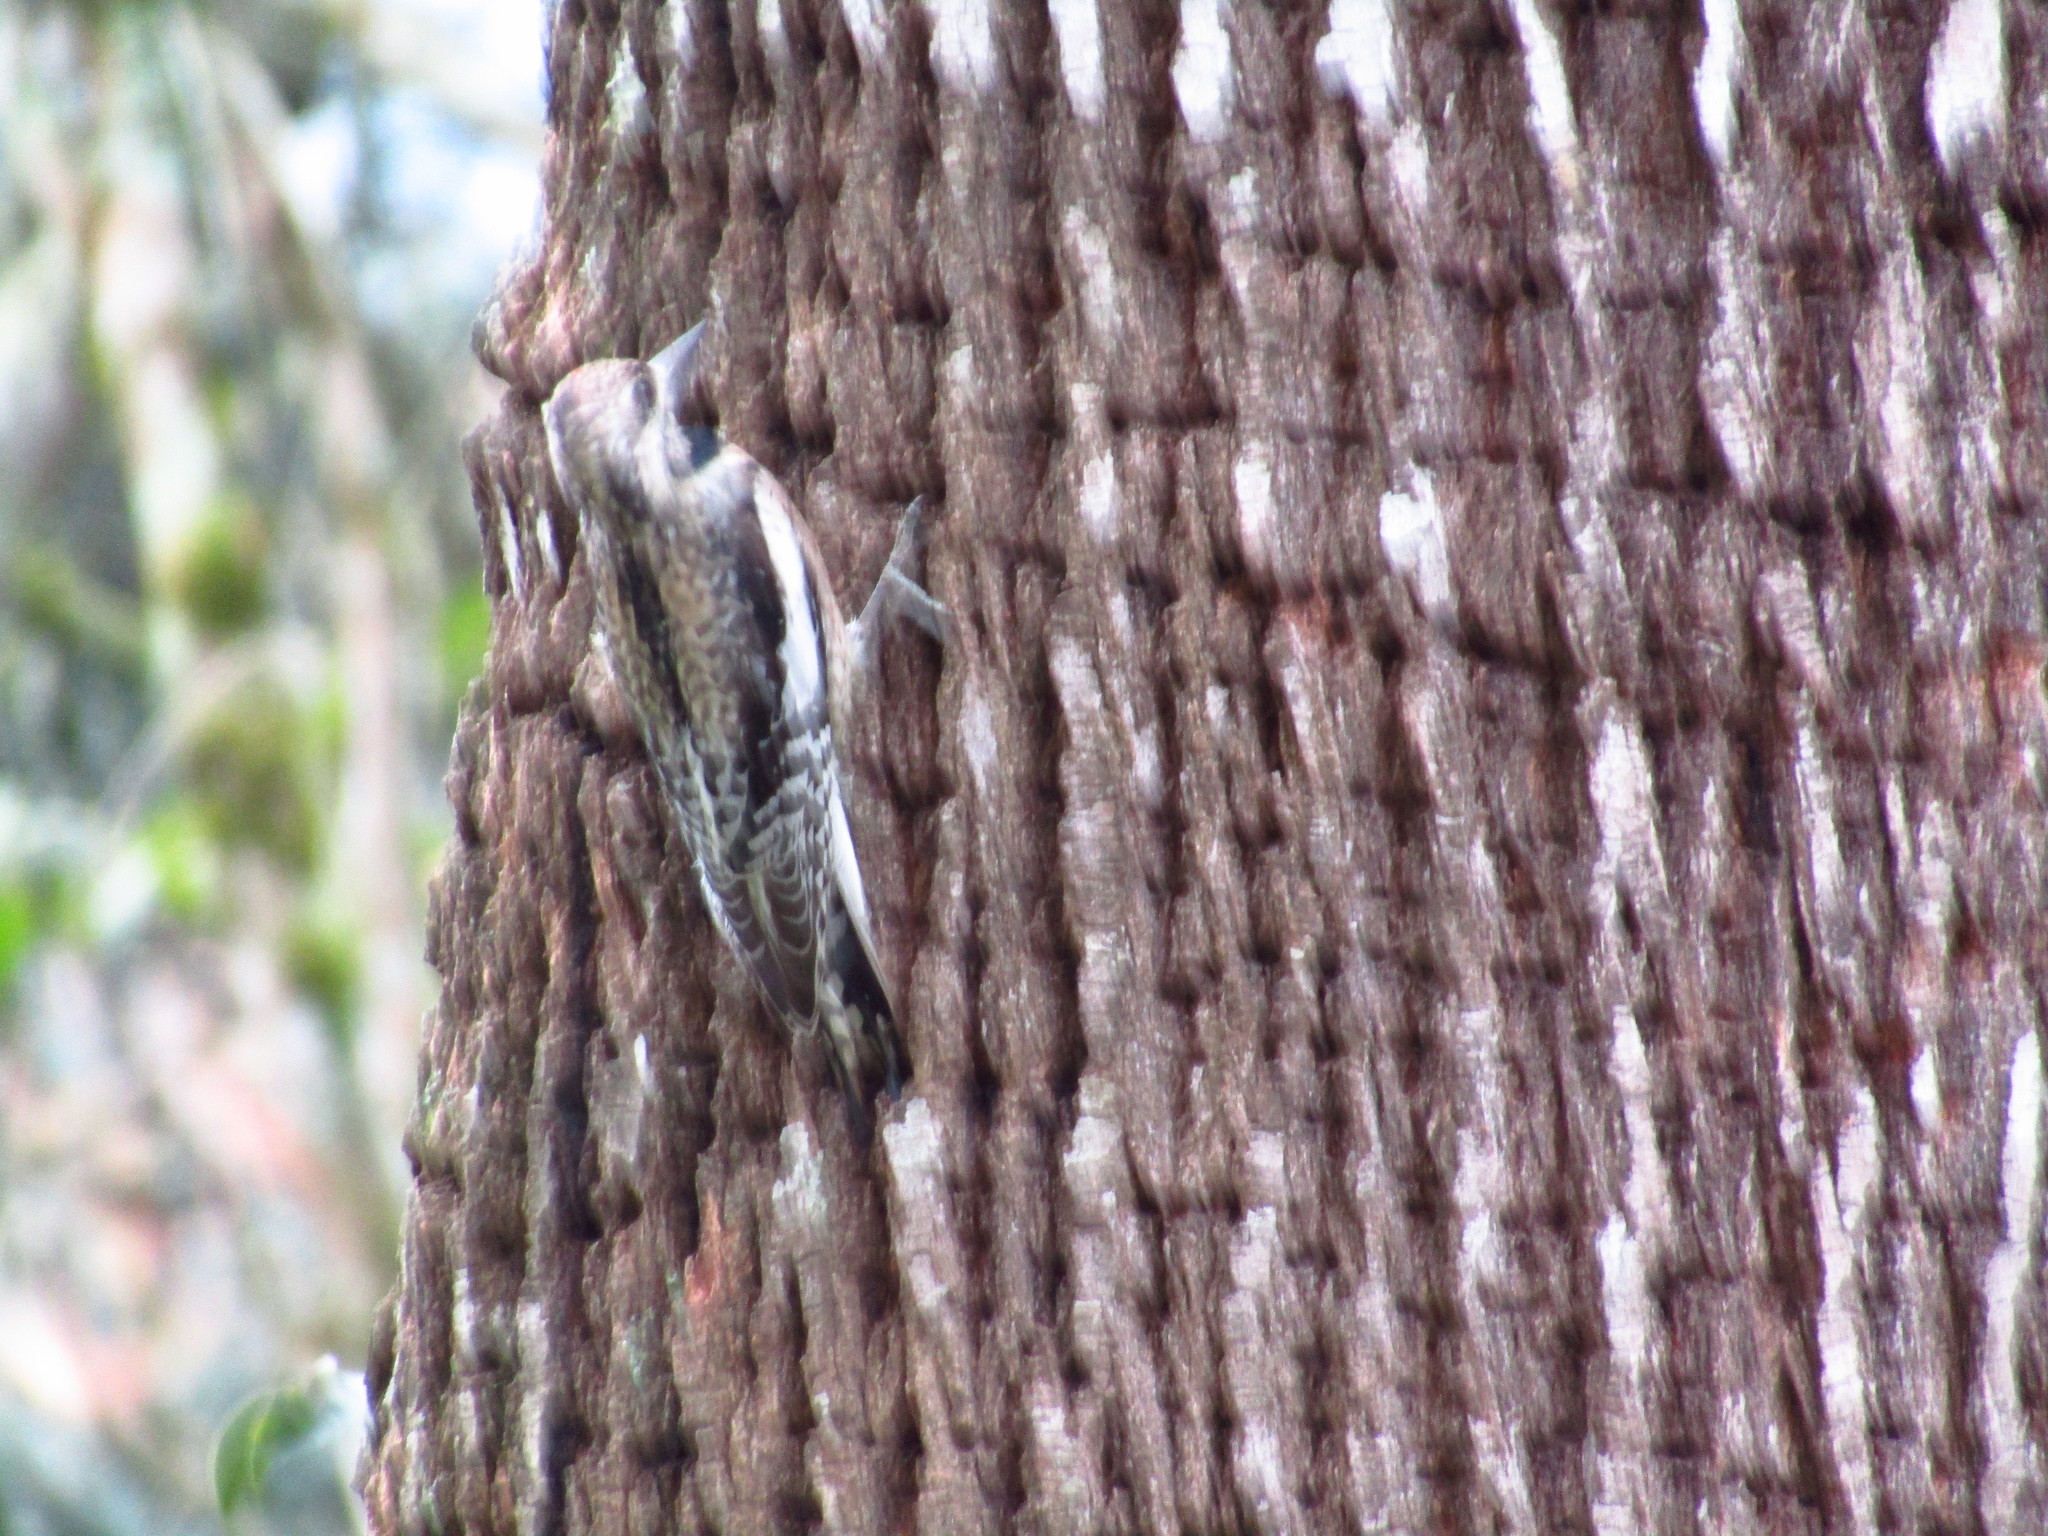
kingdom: Animalia
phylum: Chordata
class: Aves
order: Piciformes
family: Picidae
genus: Sphyrapicus
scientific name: Sphyrapicus varius
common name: Yellow-bellied sapsucker
